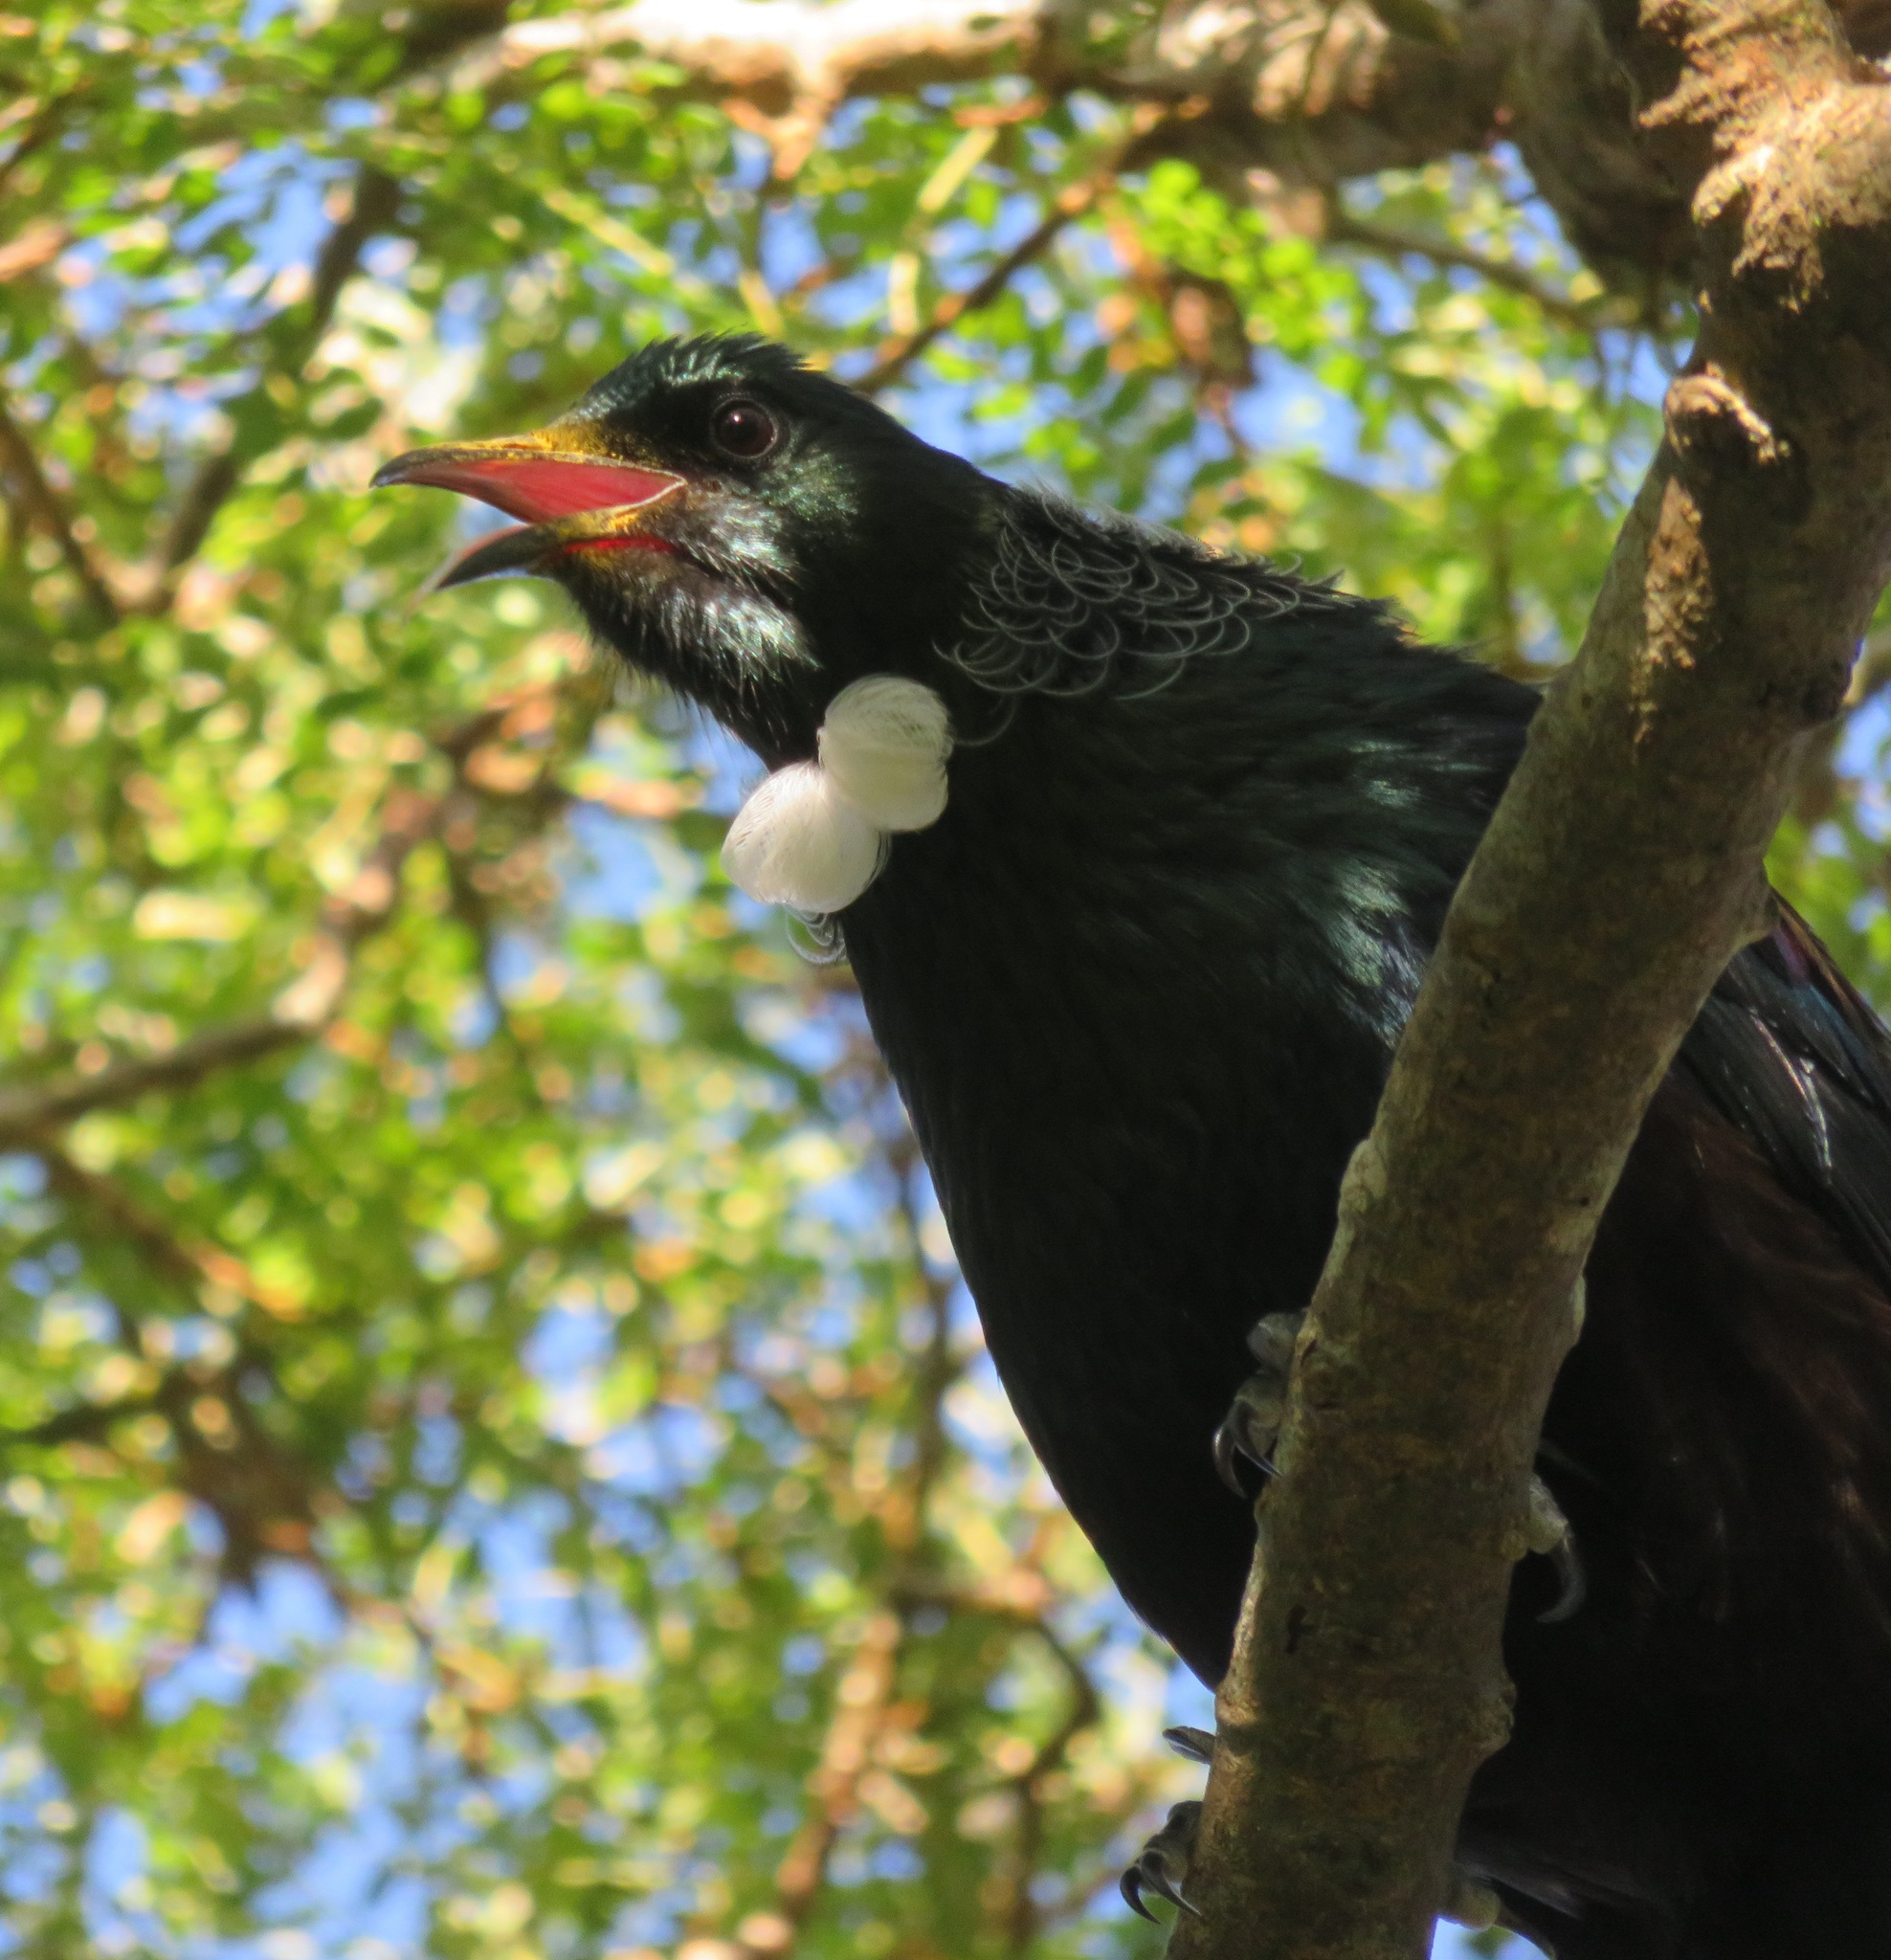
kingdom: Animalia
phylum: Chordata
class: Aves
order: Passeriformes
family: Meliphagidae
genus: Prosthemadera
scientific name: Prosthemadera novaeseelandiae
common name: Tui
